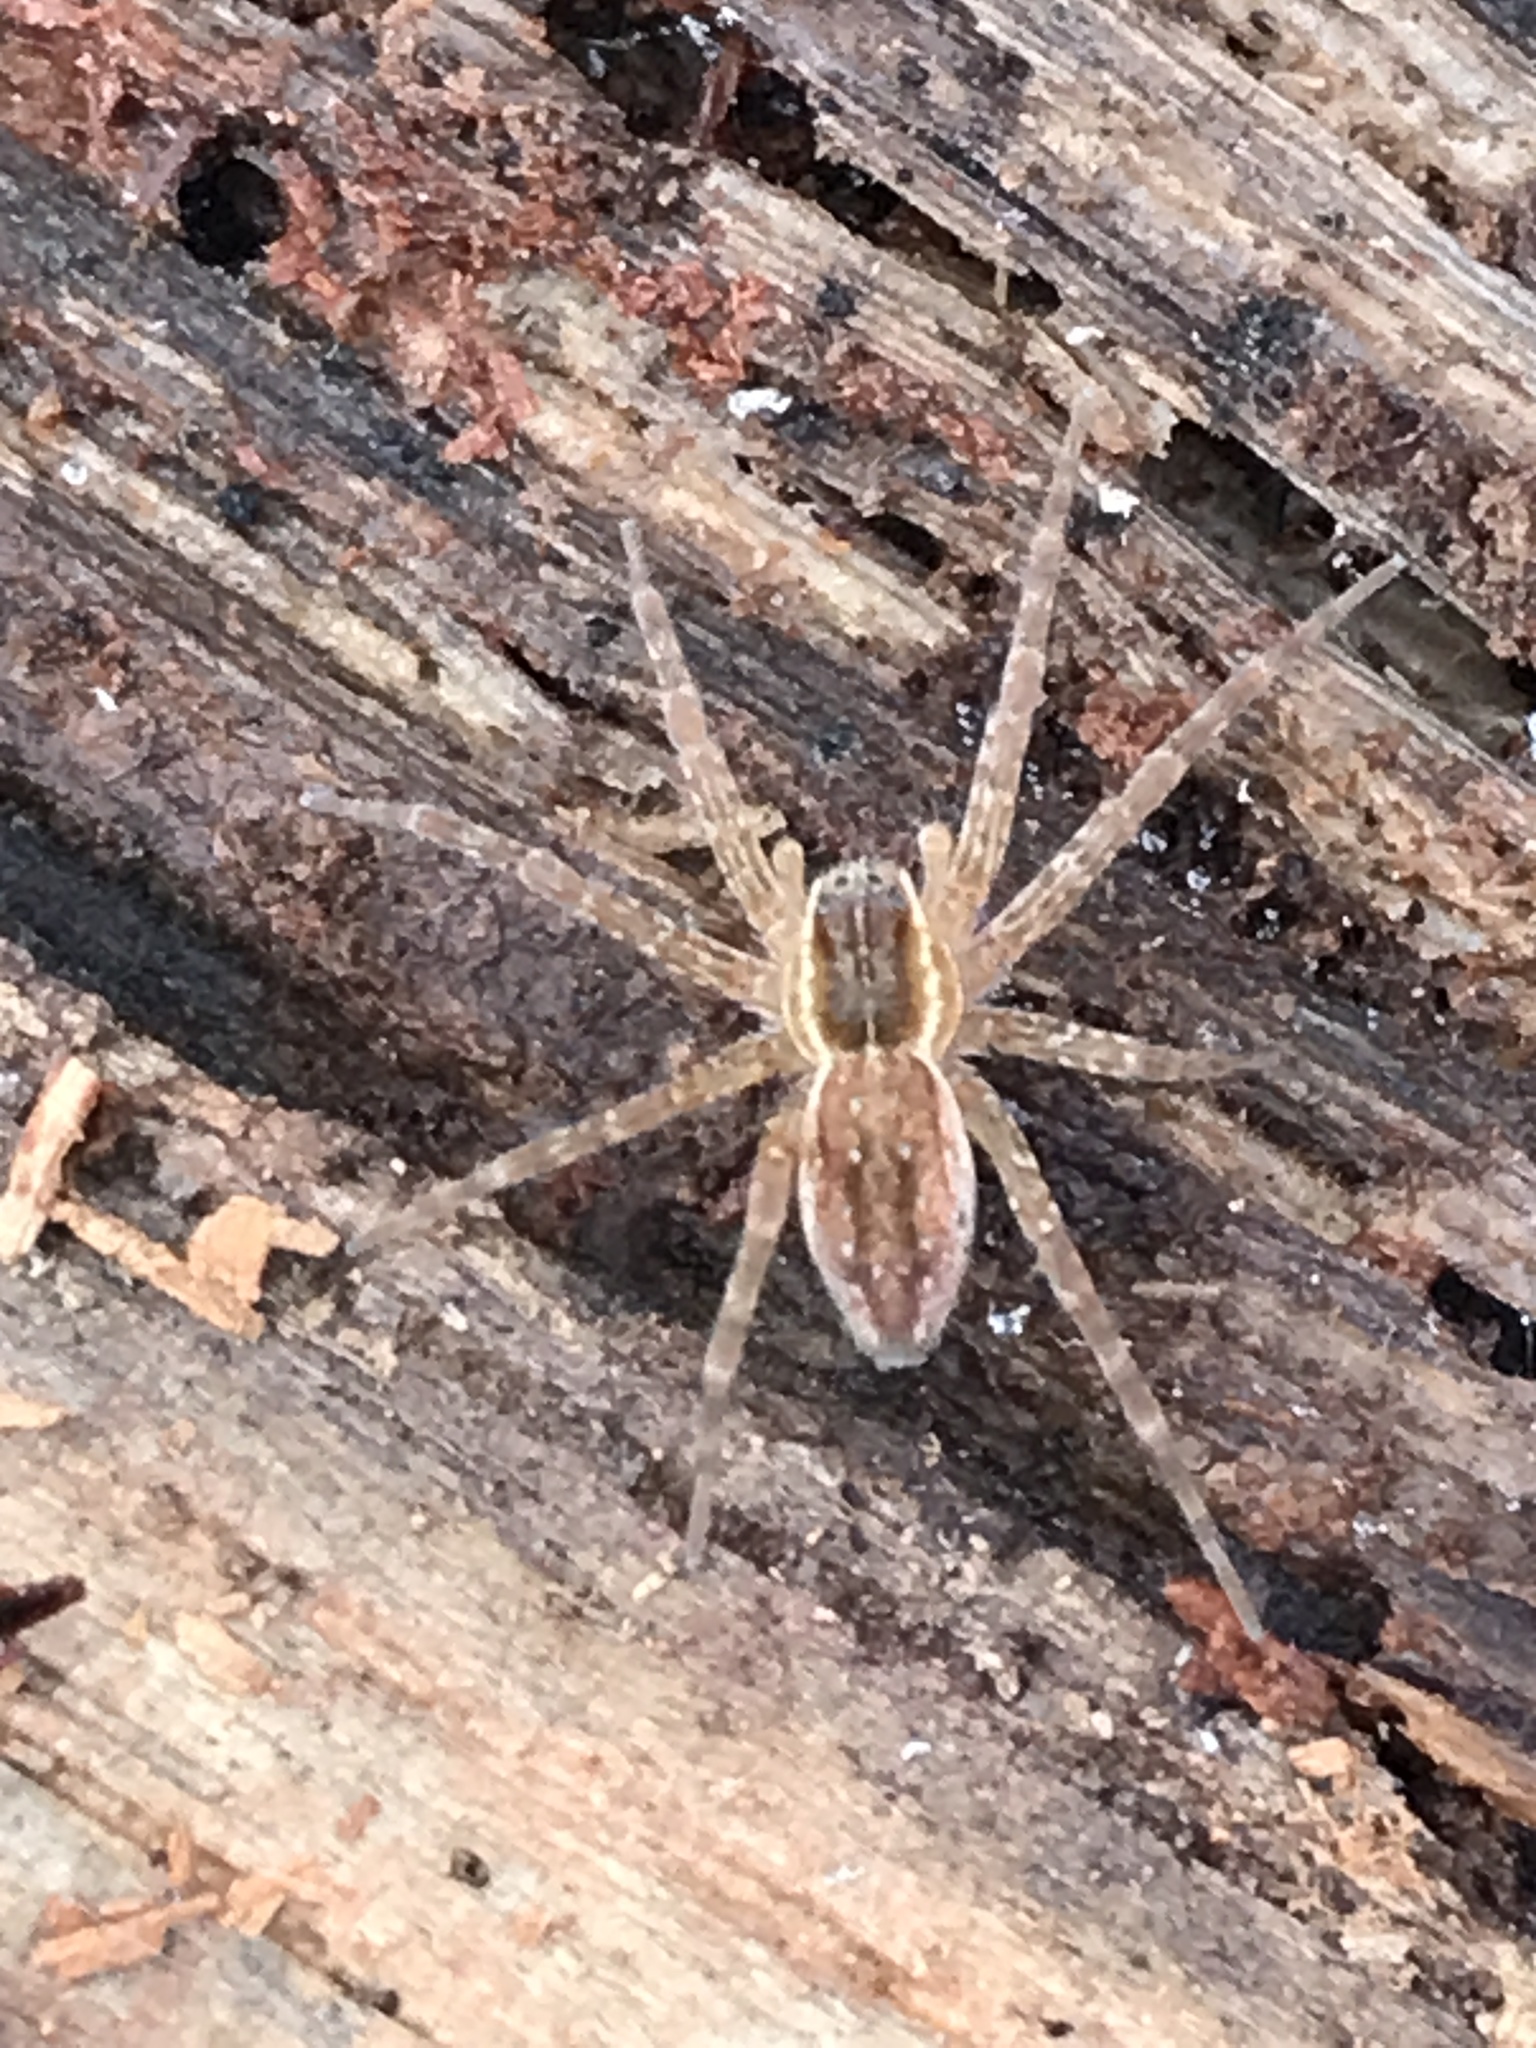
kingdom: Animalia
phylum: Arthropoda
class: Arachnida
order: Araneae
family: Pisauridae
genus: Dolomedes
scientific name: Dolomedes triton
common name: Six-spotted fishing spider
